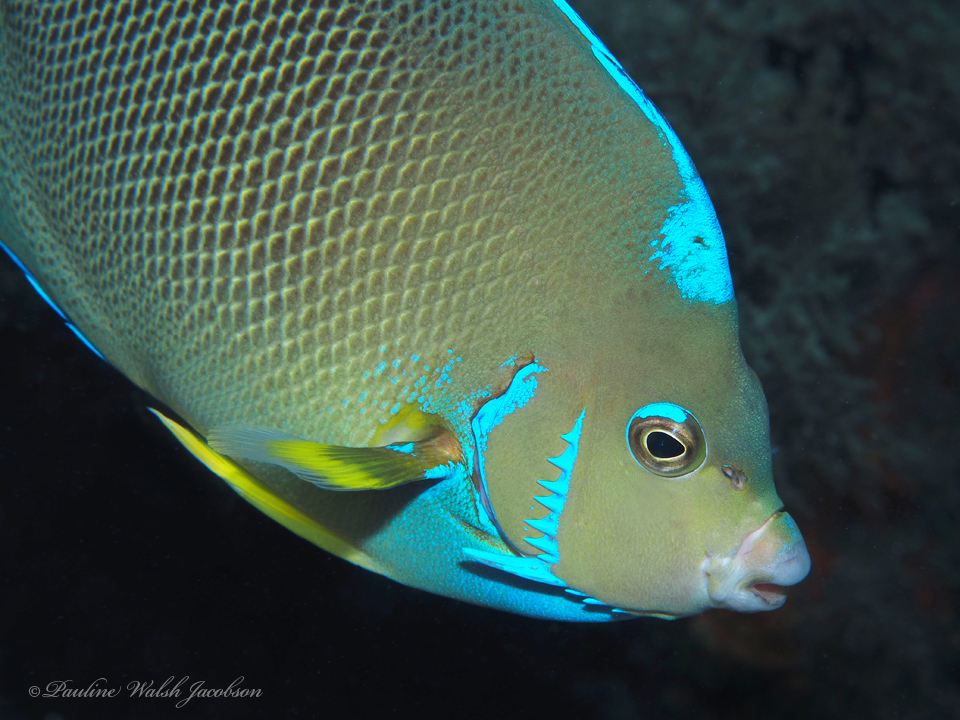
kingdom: Animalia
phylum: Chordata
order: Perciformes
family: Pomacanthidae
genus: Holacanthus
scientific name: Holacanthus ciliaris
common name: Queen angelfish
